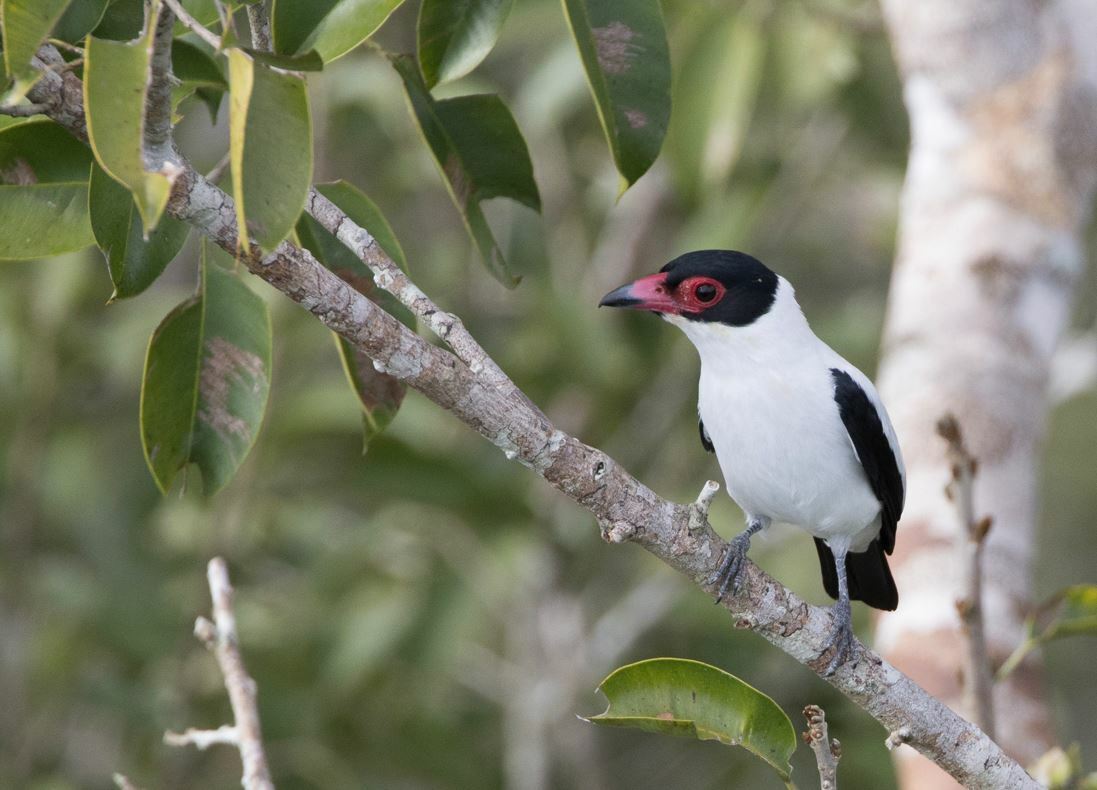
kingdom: Animalia
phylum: Chordata
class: Aves
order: Passeriformes
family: Cotingidae
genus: Tityra
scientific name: Tityra cayana
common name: Black-tailed tityra
